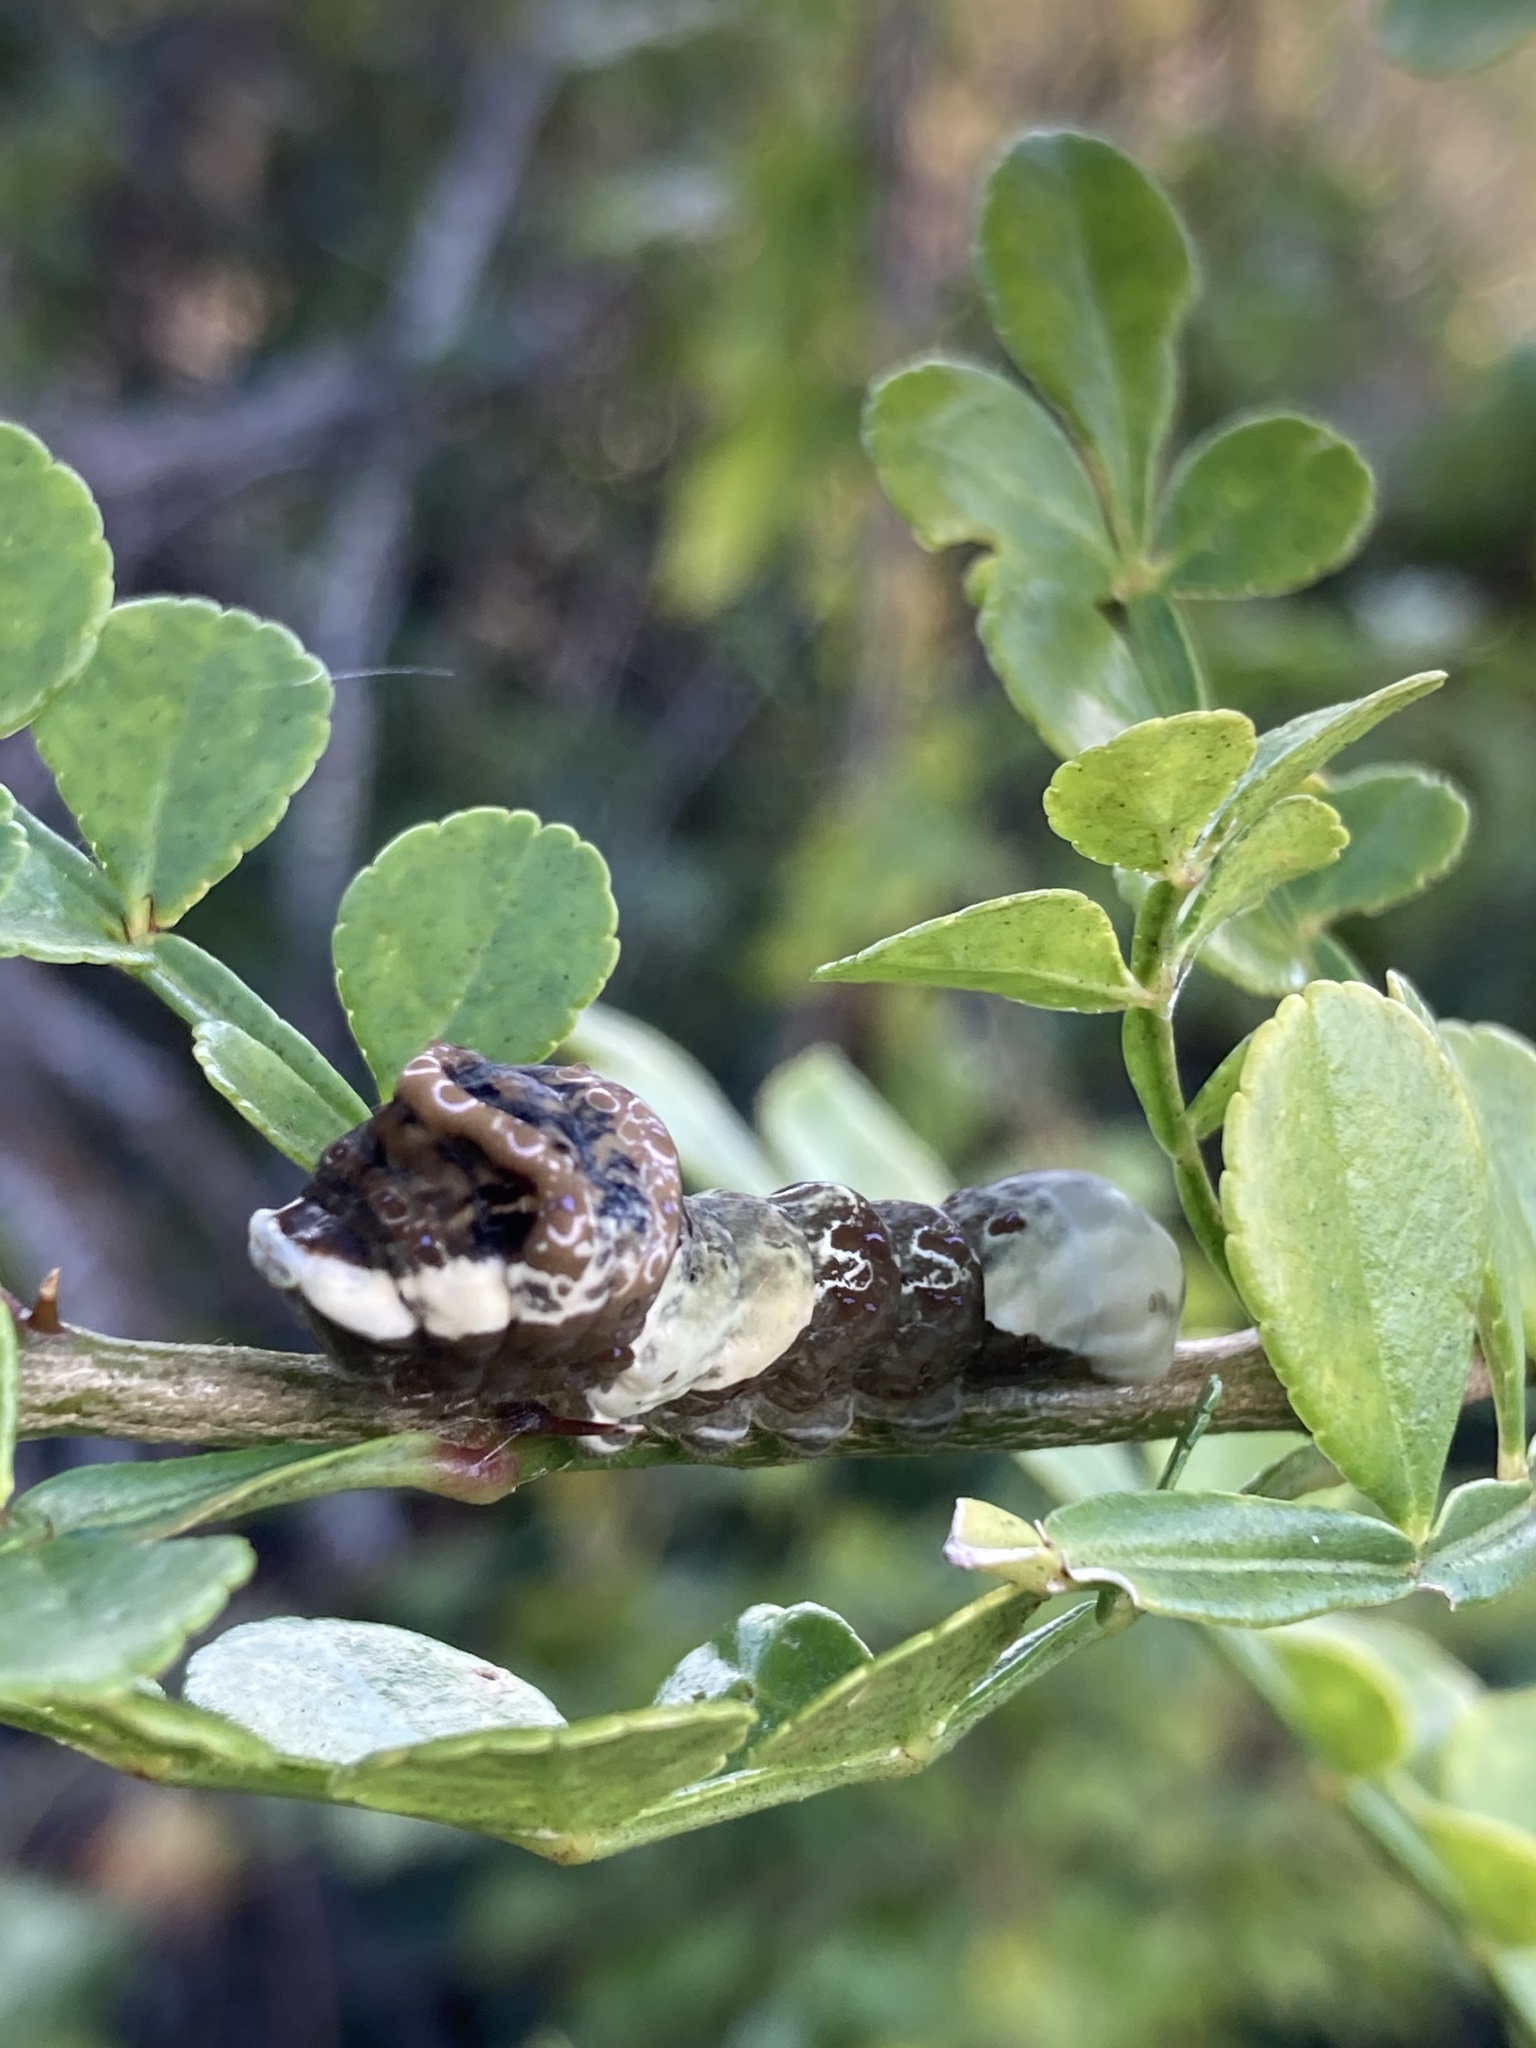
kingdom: Animalia
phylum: Arthropoda
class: Insecta
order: Lepidoptera
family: Papilionidae
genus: Papilio
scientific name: Papilio cresphontes
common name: Giant swallowtail
